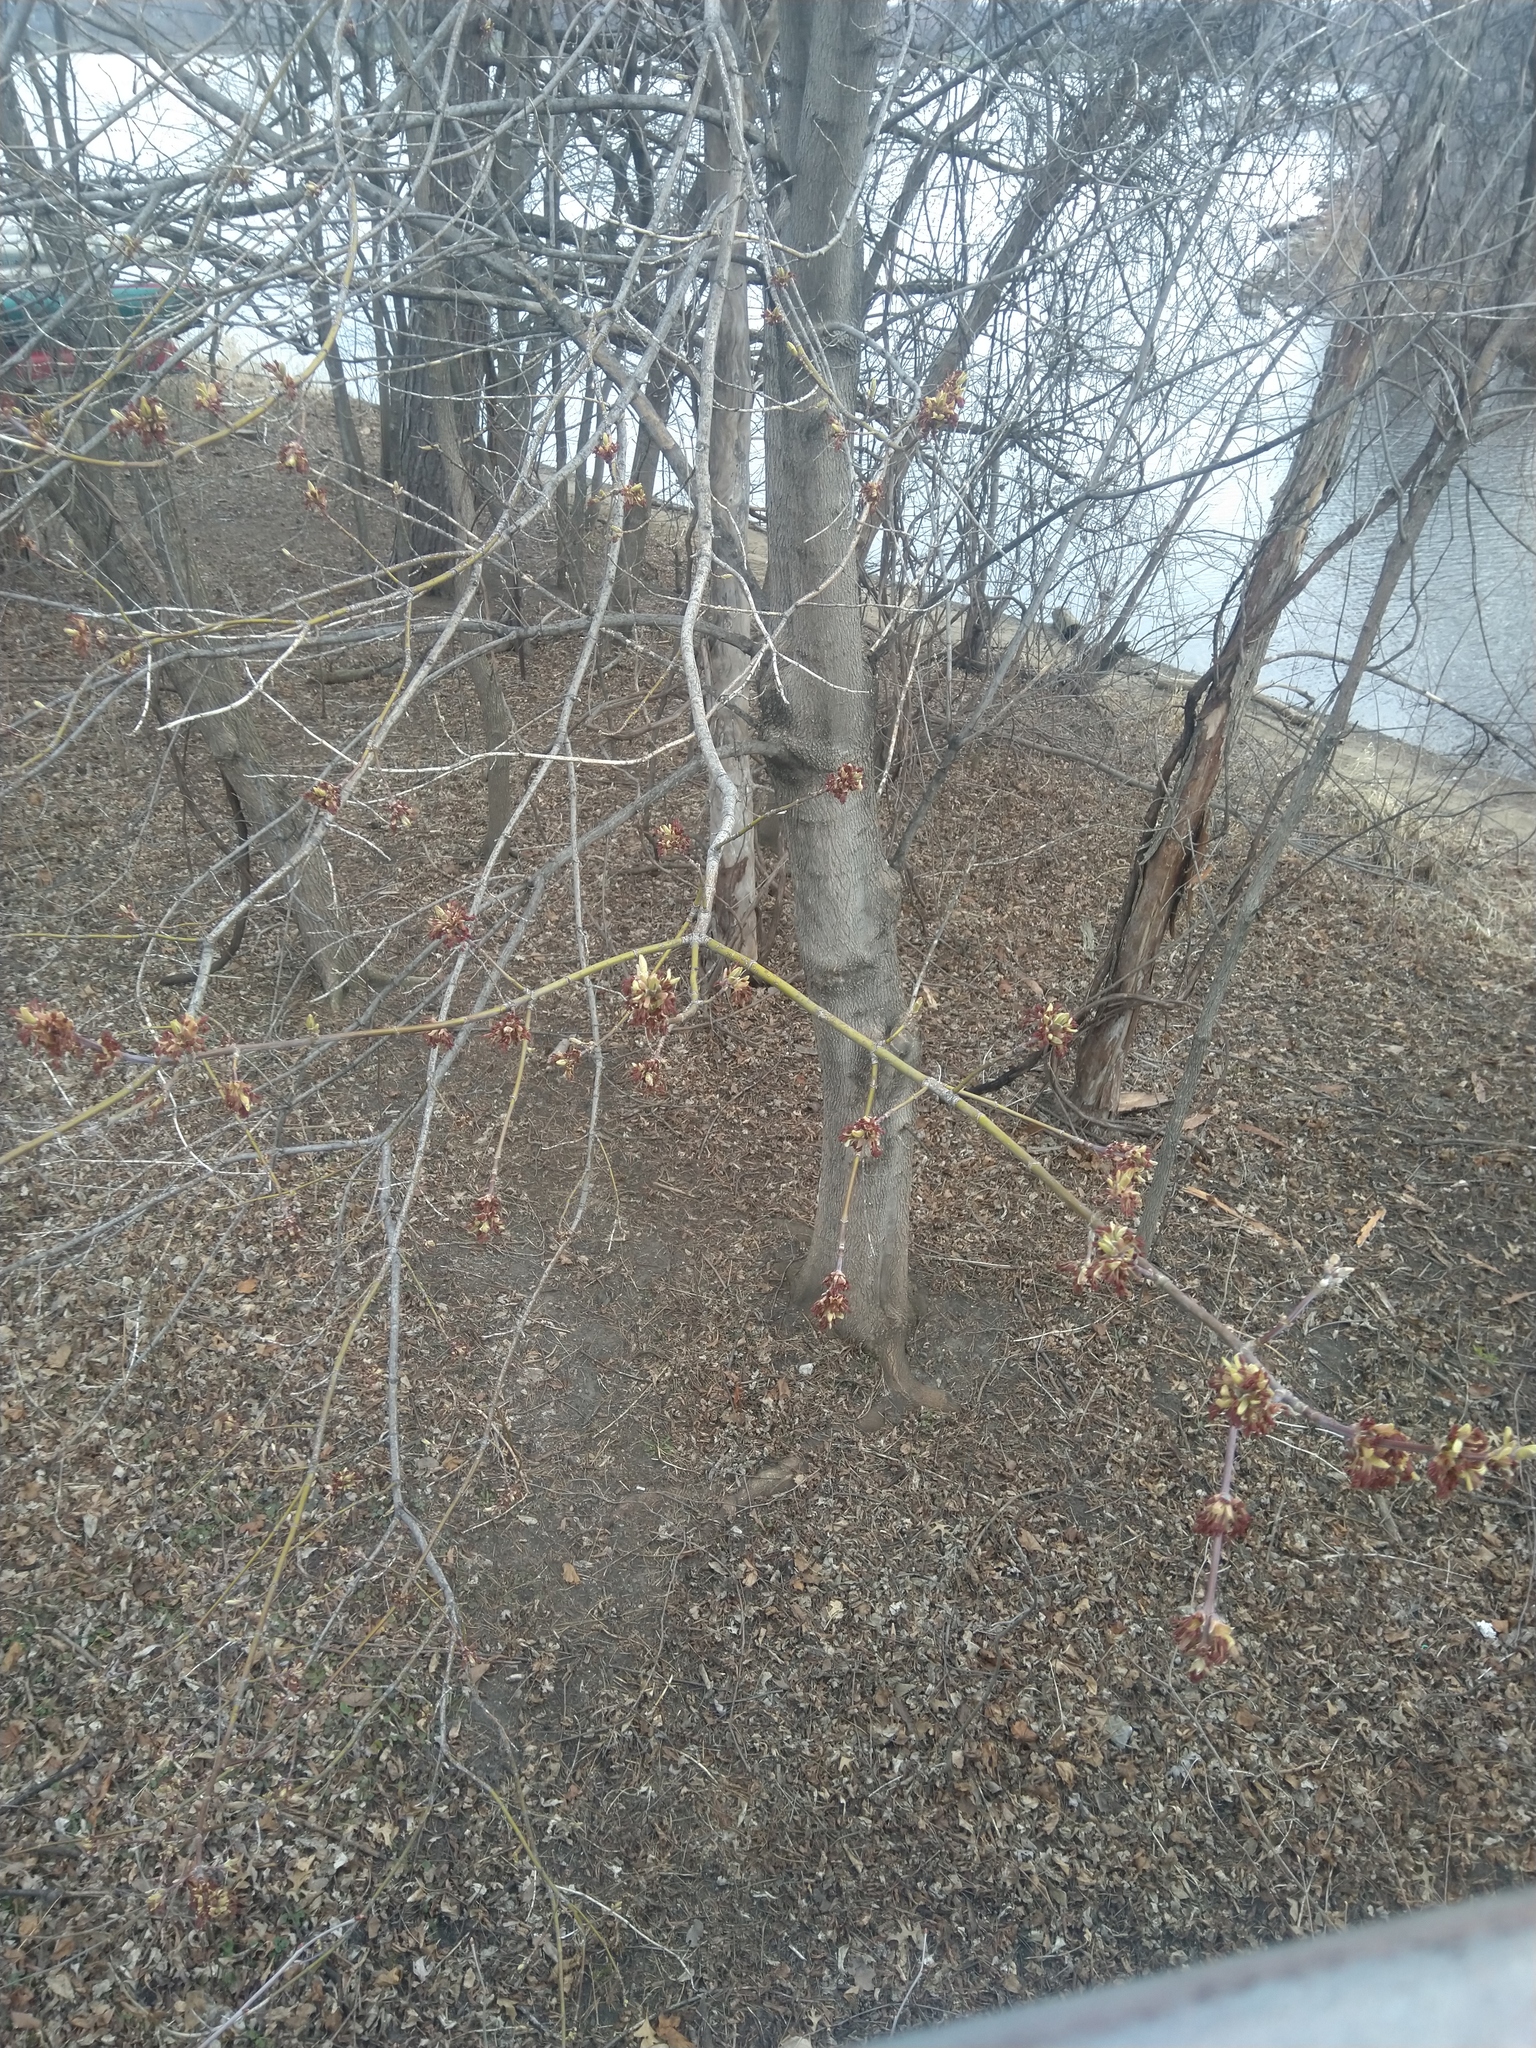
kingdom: Plantae
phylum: Tracheophyta
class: Magnoliopsida
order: Sapindales
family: Sapindaceae
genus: Acer
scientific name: Acer negundo
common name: Ashleaf maple
